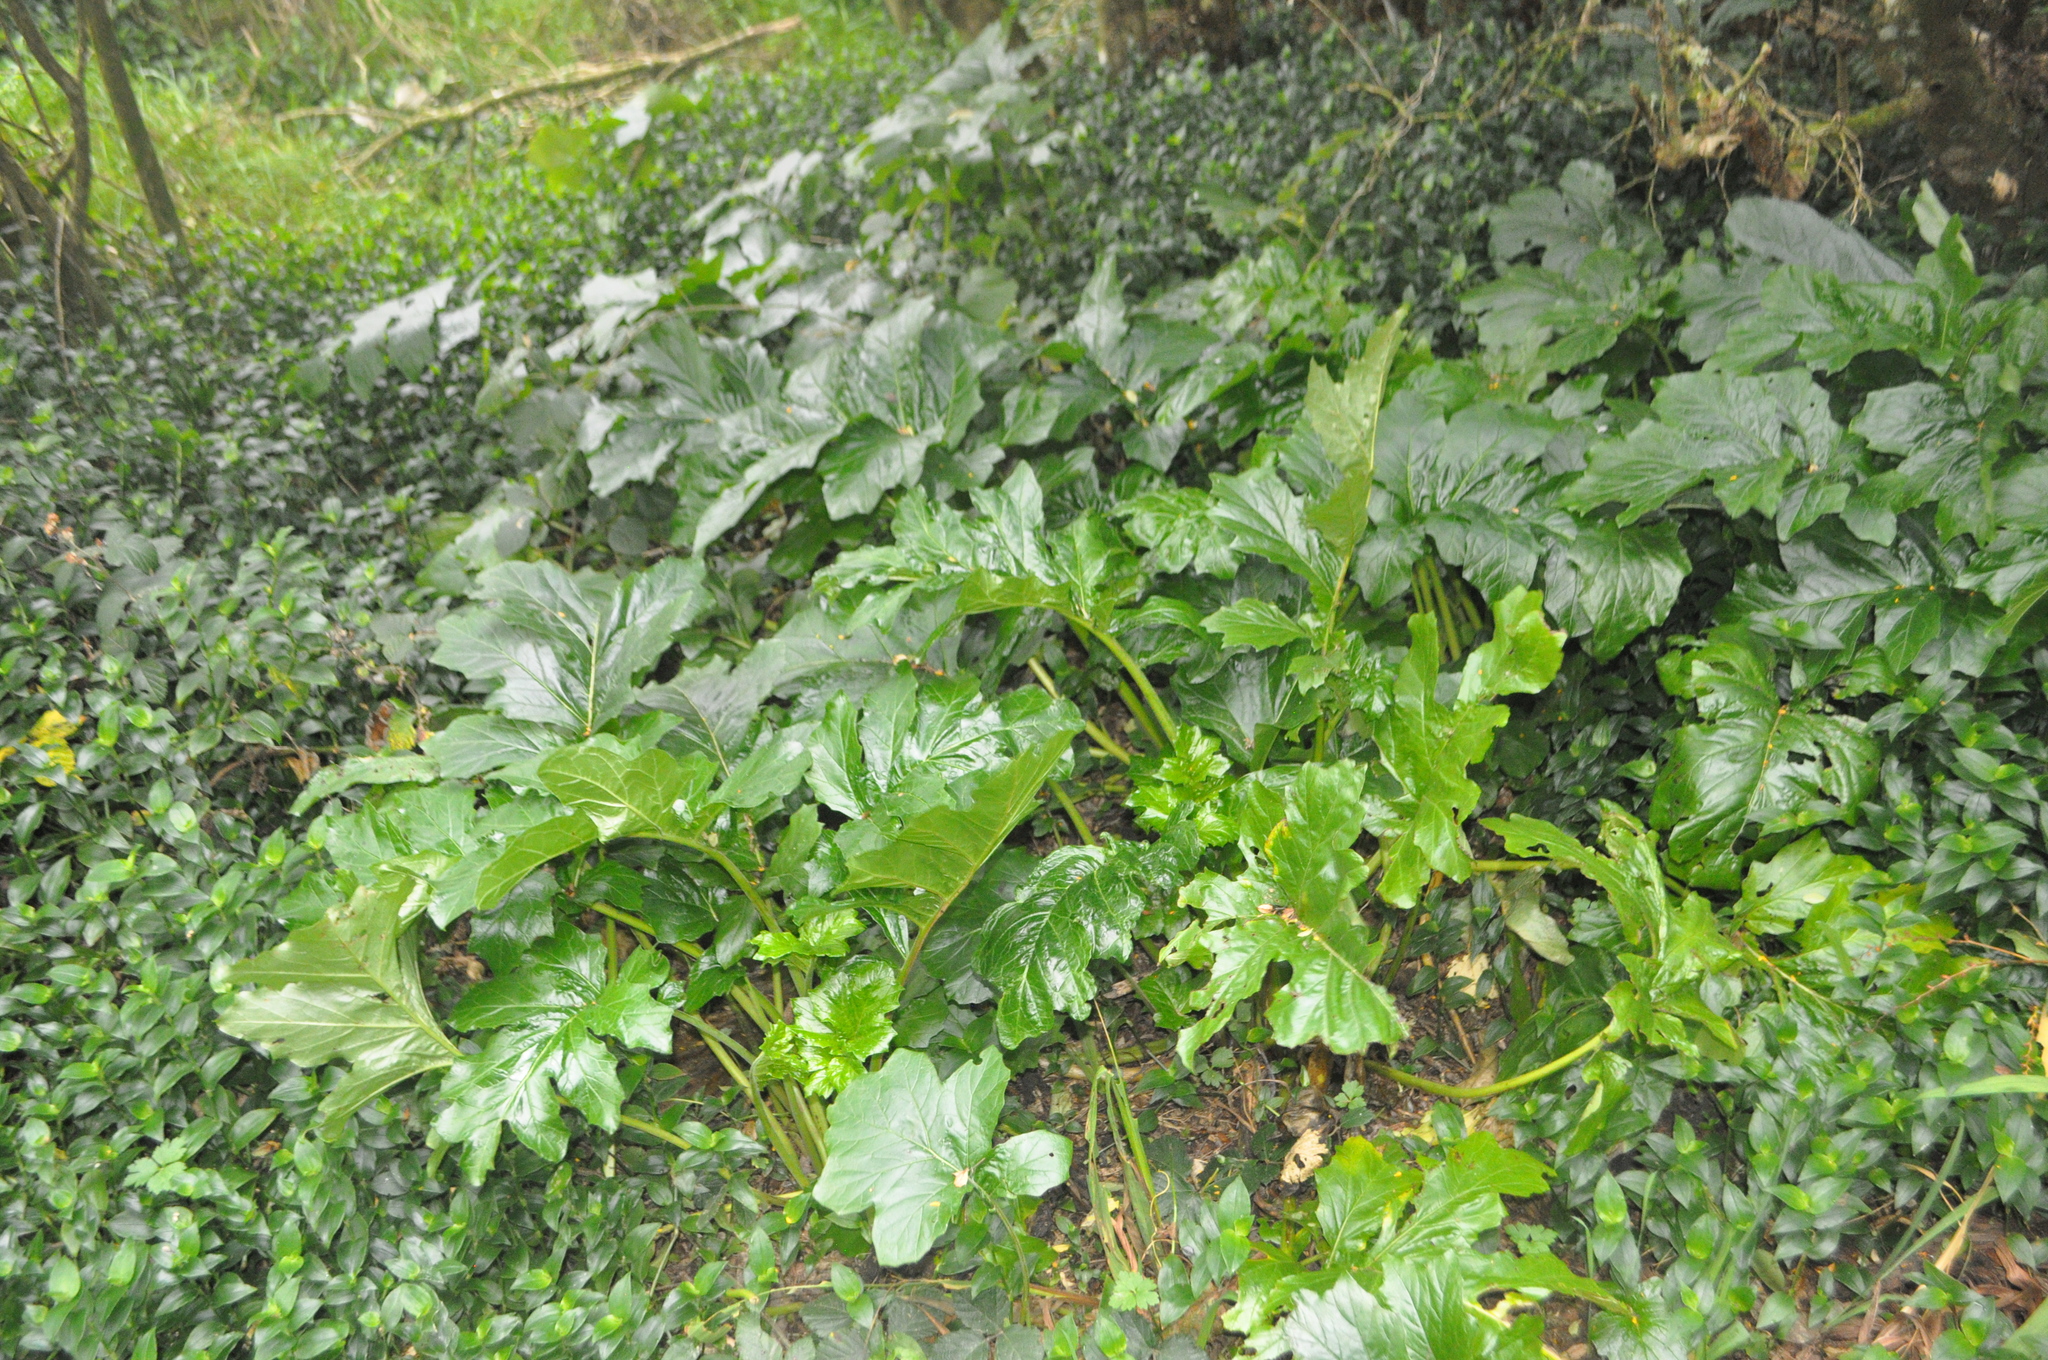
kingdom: Plantae
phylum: Tracheophyta
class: Magnoliopsida
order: Lamiales
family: Acanthaceae
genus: Acanthus
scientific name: Acanthus mollis
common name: Bear's-breech
